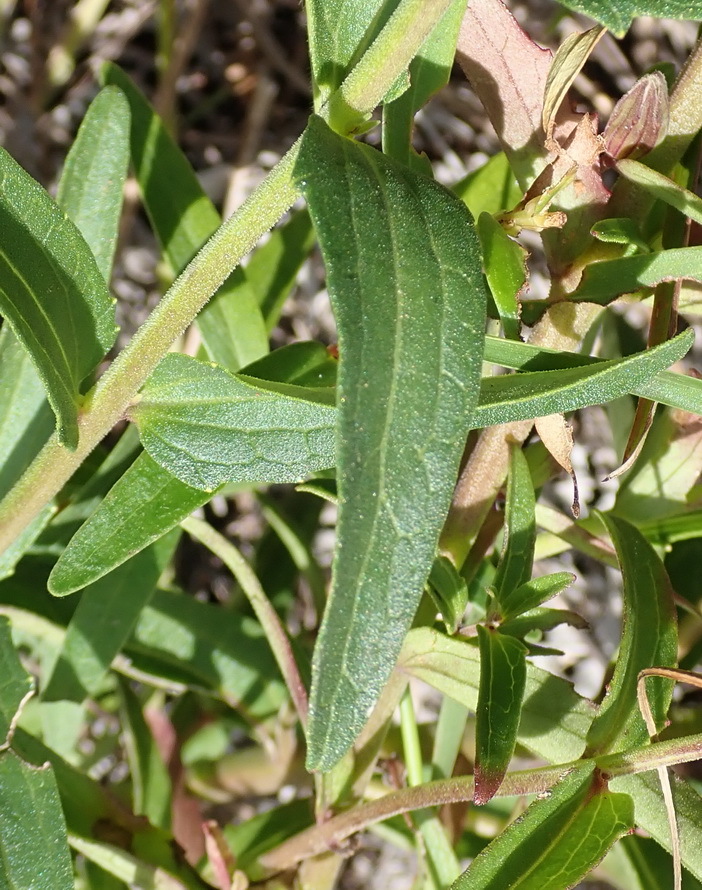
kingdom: Plantae
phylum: Tracheophyta
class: Magnoliopsida
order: Lamiales
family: Orobanchaceae
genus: Melasma
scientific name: Melasma scabrum
